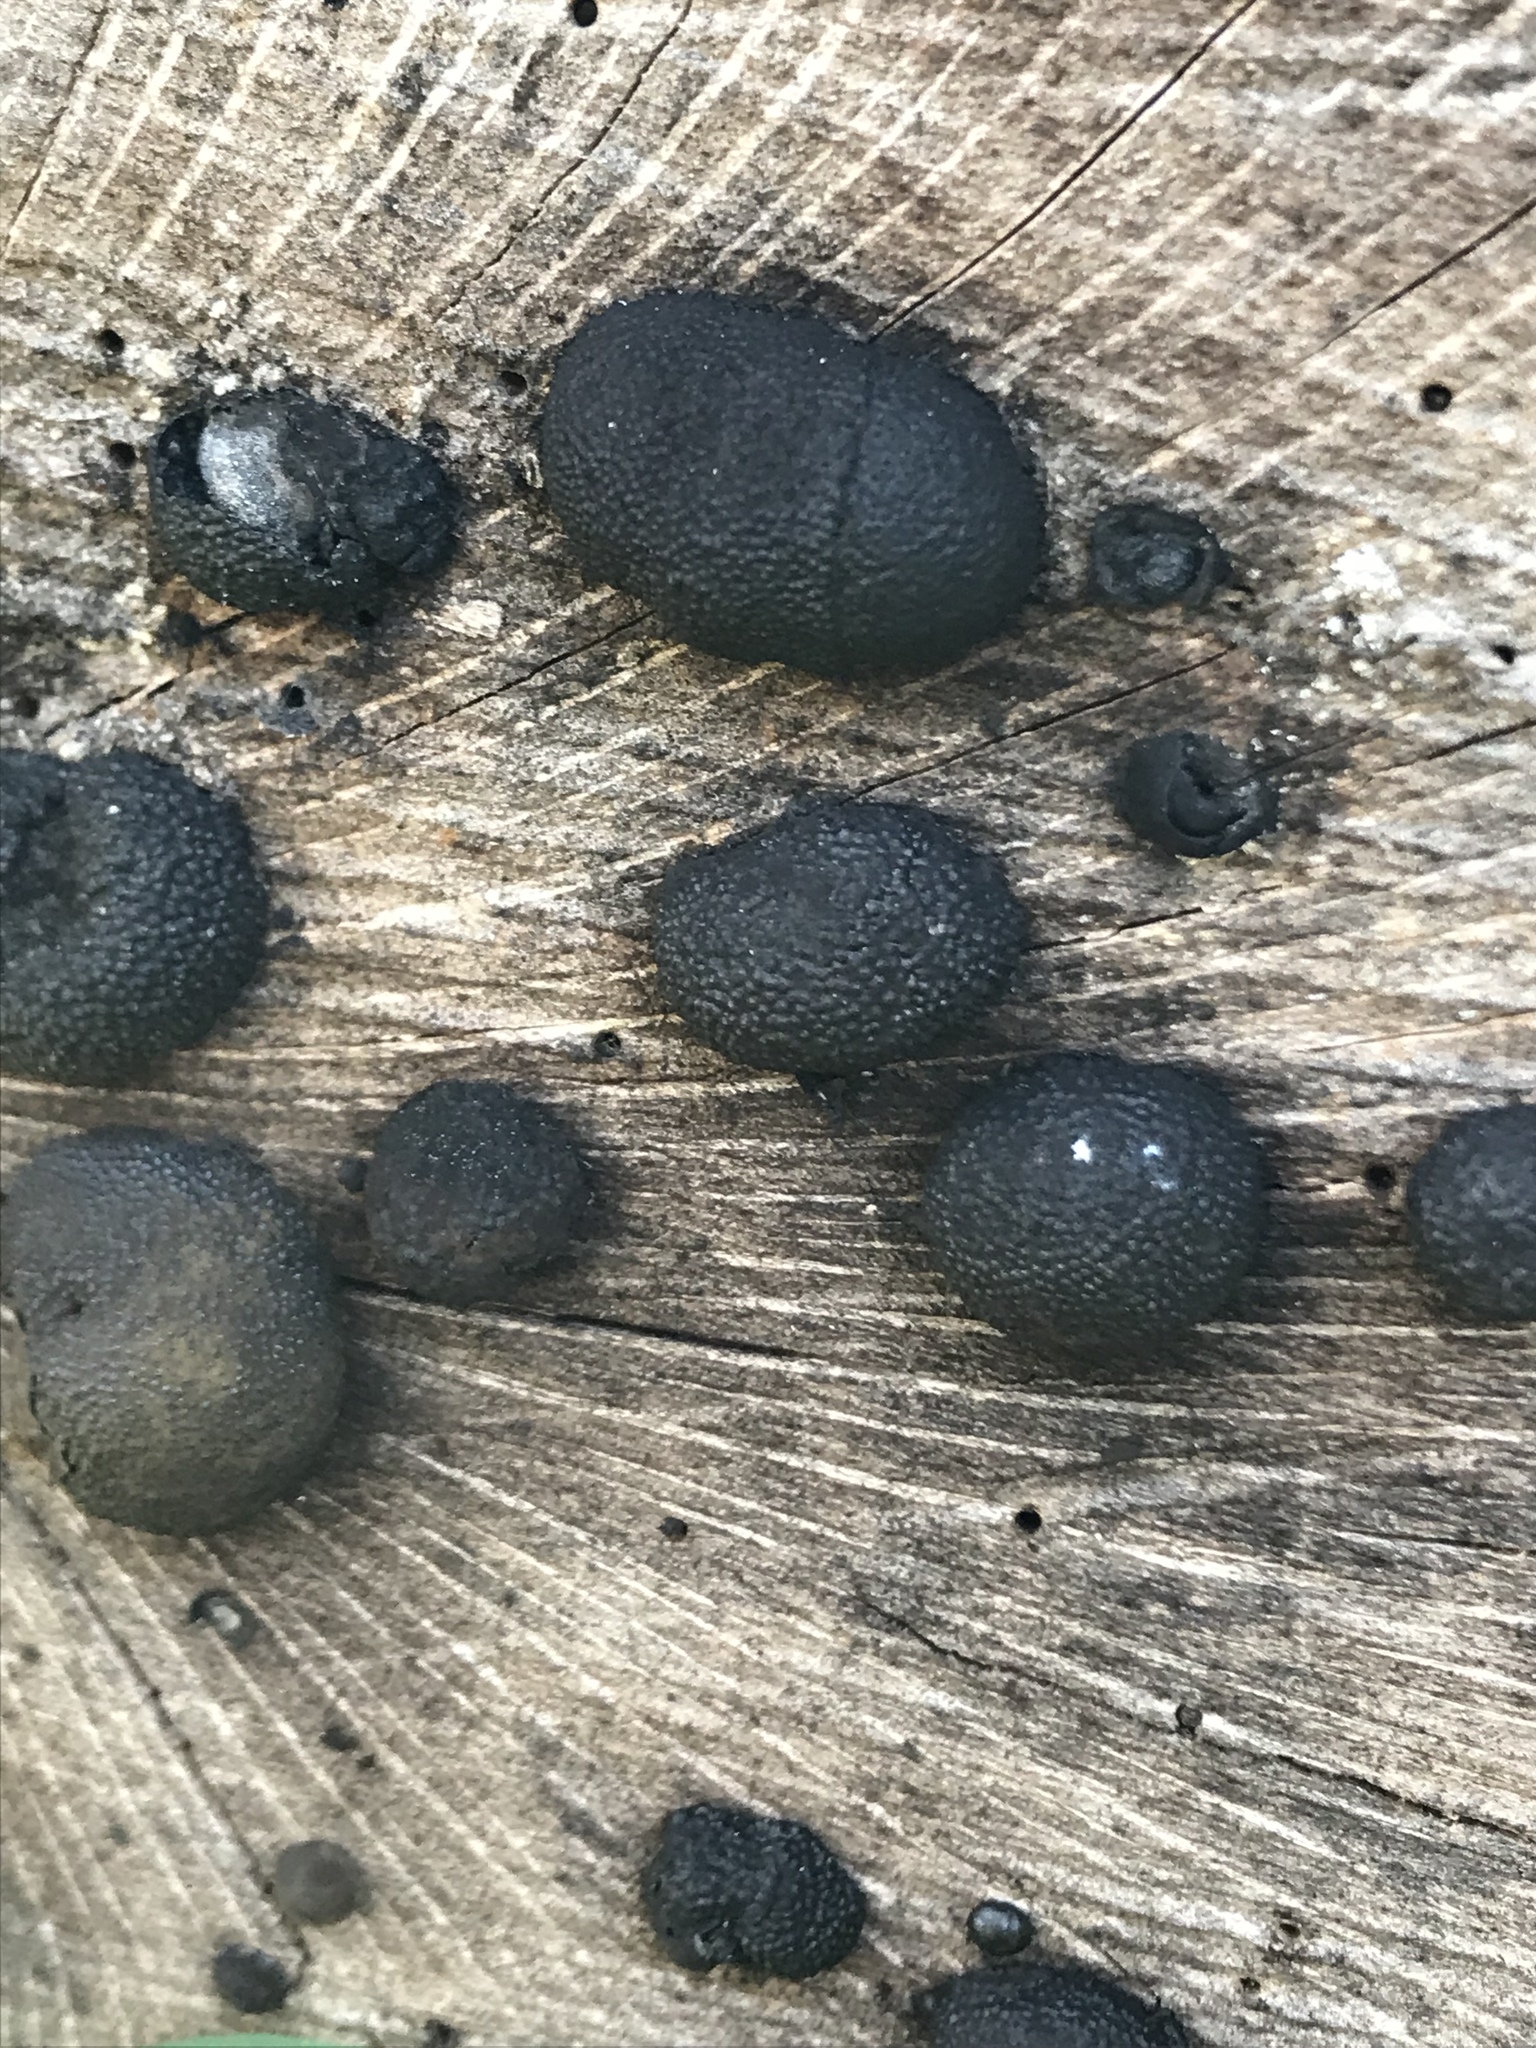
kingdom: Fungi
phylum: Ascomycota
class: Sordariomycetes
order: Xylariales
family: Hypoxylaceae
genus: Annulohypoxylon
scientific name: Annulohypoxylon thouarsianum
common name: Cramp balls
